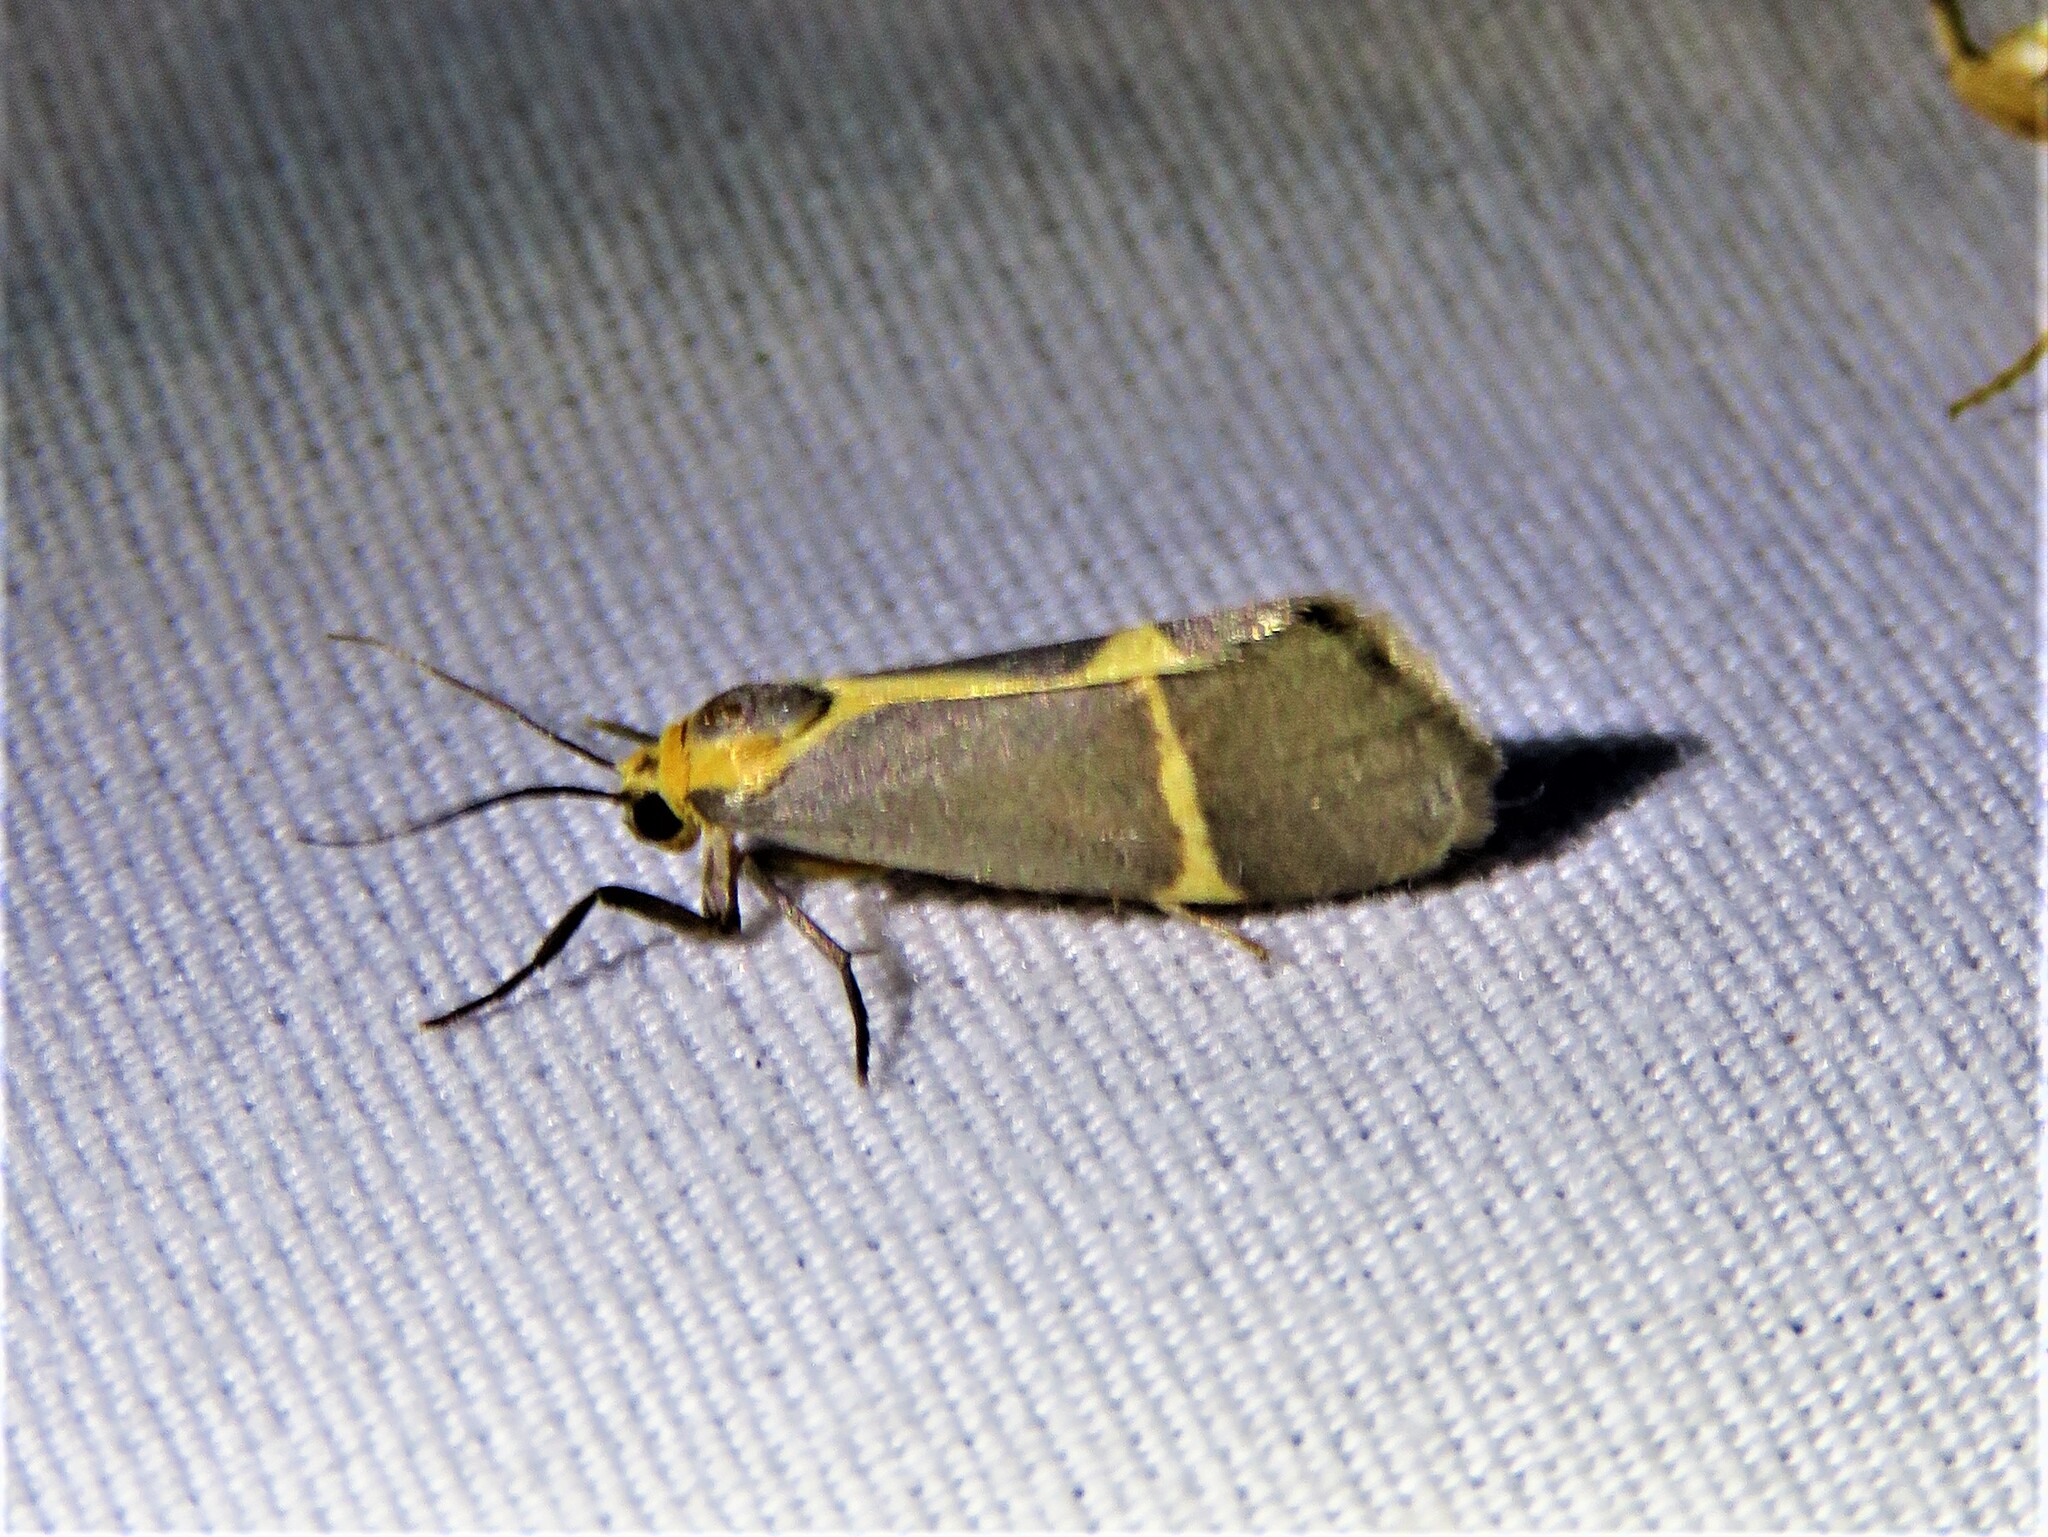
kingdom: Animalia
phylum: Arthropoda
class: Insecta
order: Lepidoptera
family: Erebidae
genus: Cisthene
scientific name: Cisthene tenuifascia
